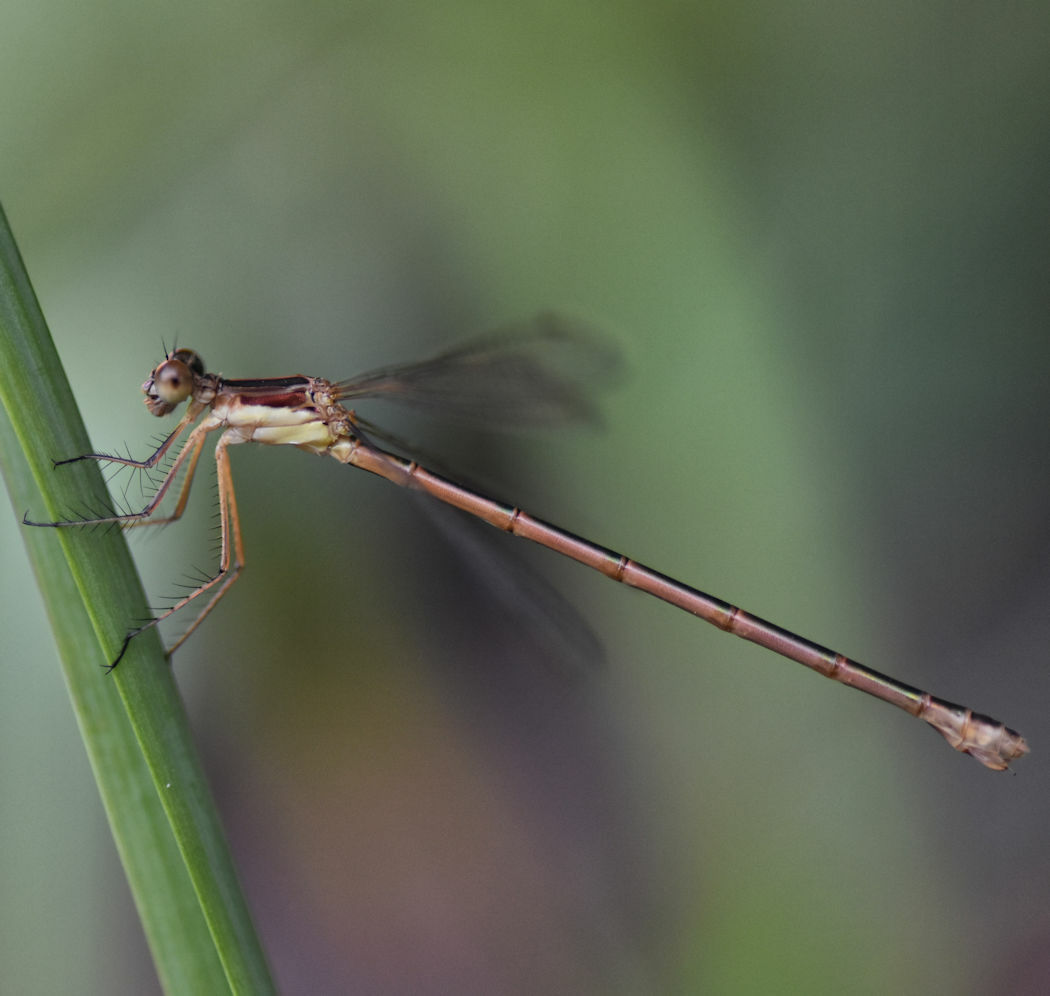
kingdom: Animalia
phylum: Arthropoda
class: Insecta
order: Odonata
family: Lestidae
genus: Lestes
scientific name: Lestes rectangularis
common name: Slender spreadwing
